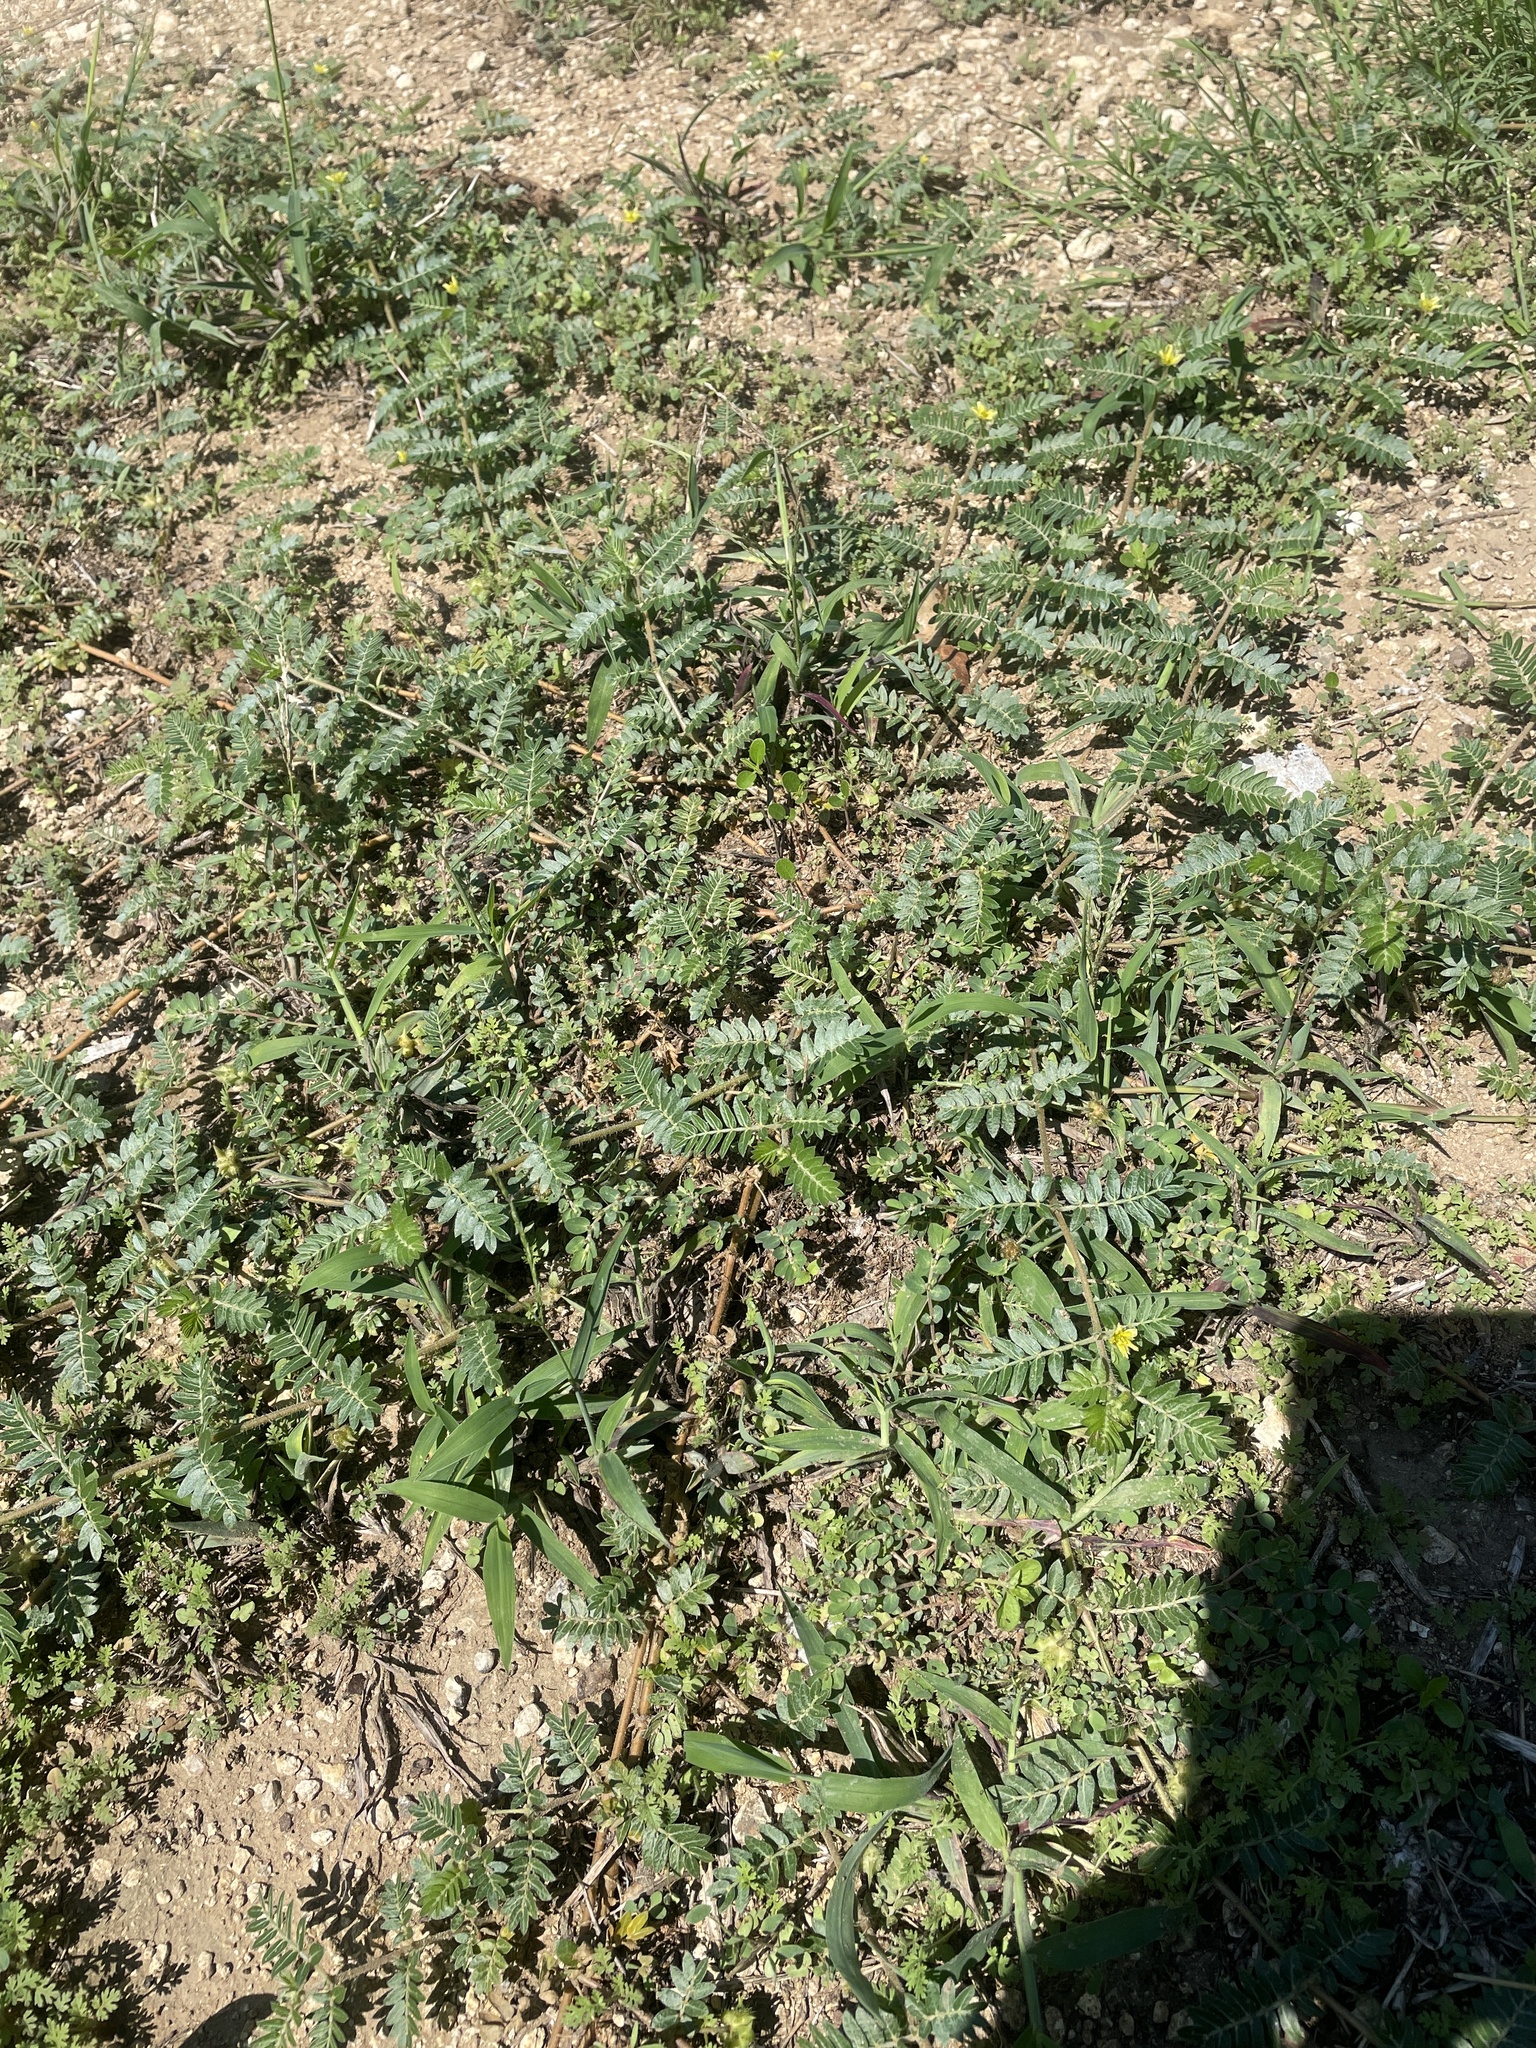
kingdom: Plantae
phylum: Tracheophyta
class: Magnoliopsida
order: Zygophyllales
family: Zygophyllaceae
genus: Tribulus
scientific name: Tribulus terrestris
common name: Puncturevine
